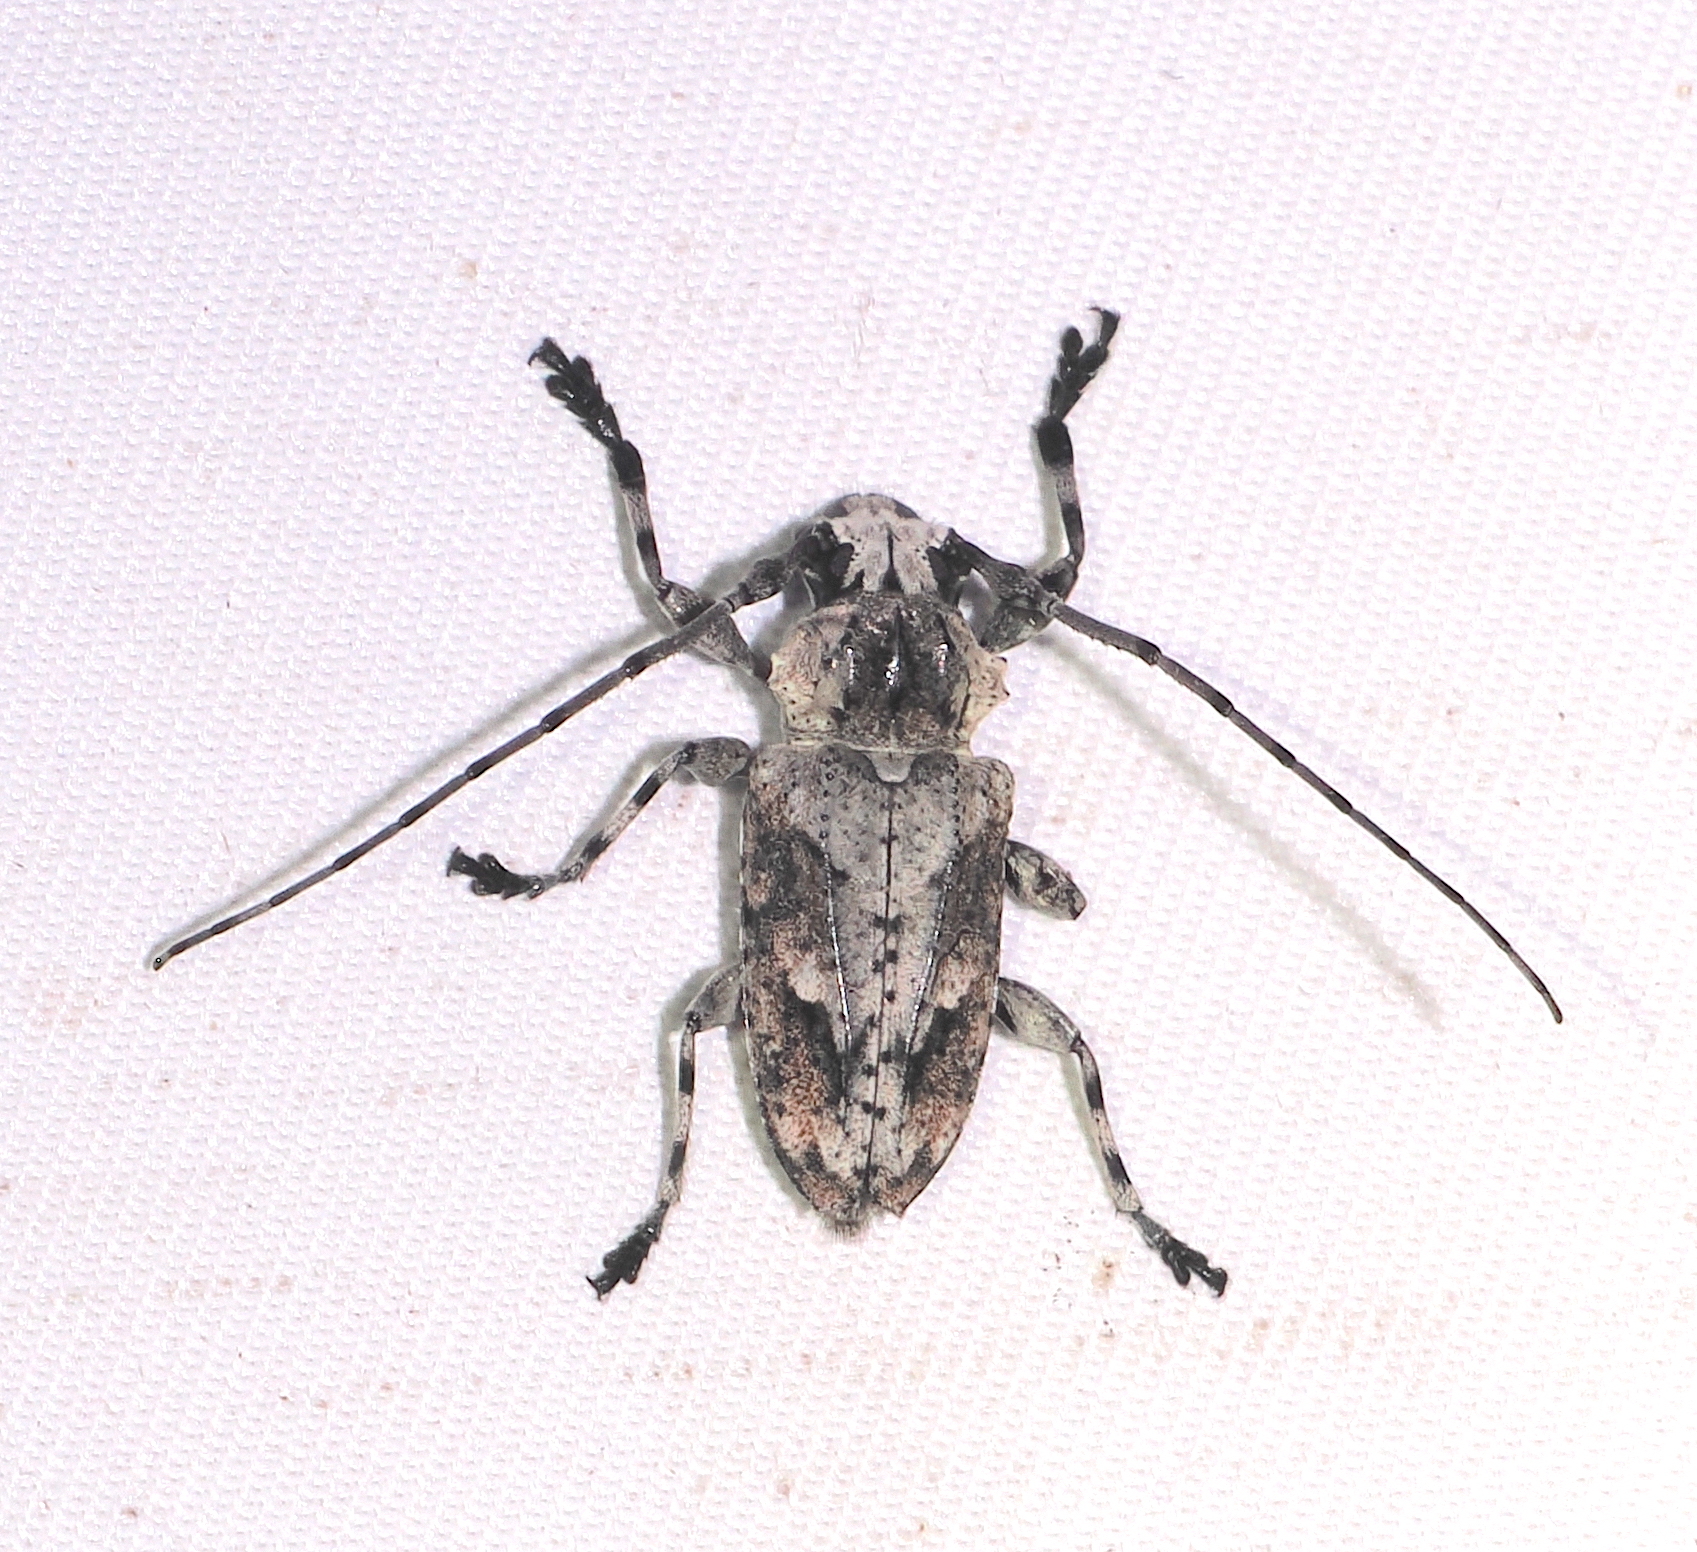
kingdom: Animalia
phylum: Arthropoda
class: Insecta
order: Coleoptera
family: Cerambycidae
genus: Steirastoma
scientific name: Steirastoma stellio
